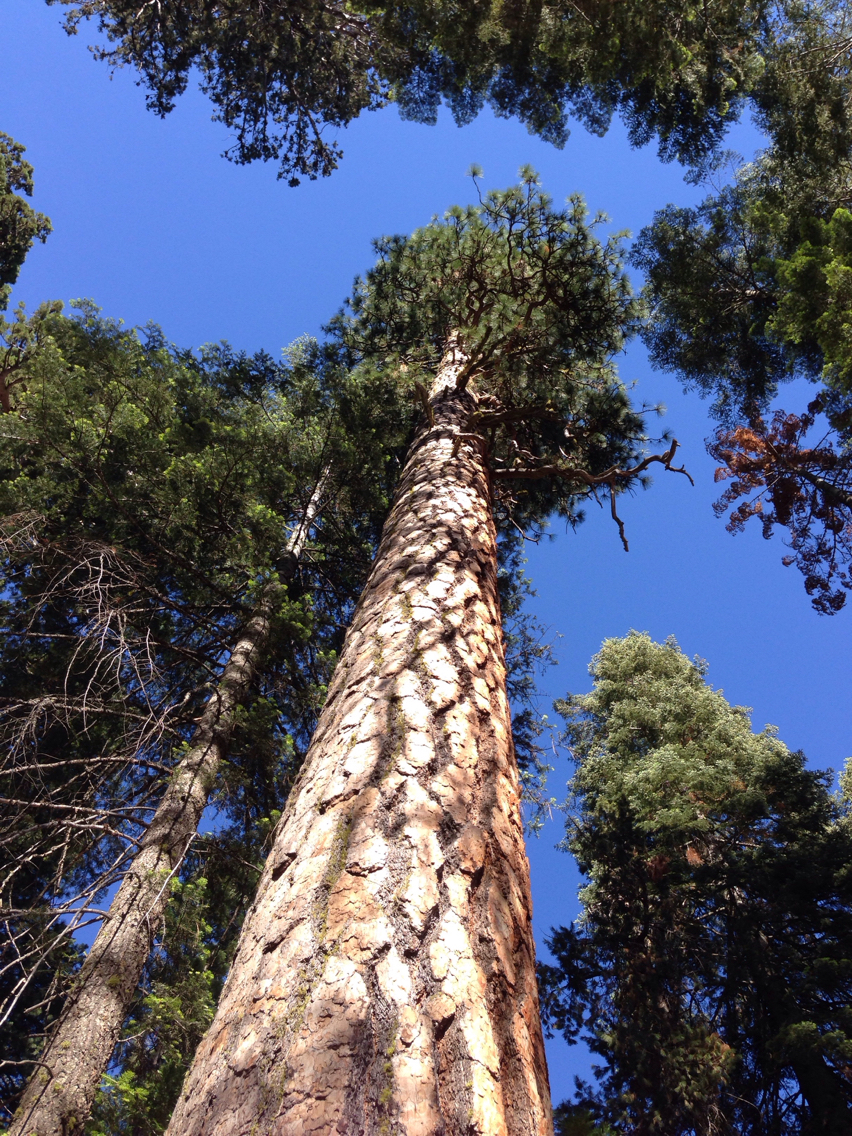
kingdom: Plantae
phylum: Tracheophyta
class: Pinopsida
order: Pinales
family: Pinaceae
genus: Pinus
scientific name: Pinus ponderosa
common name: Western yellow-pine
